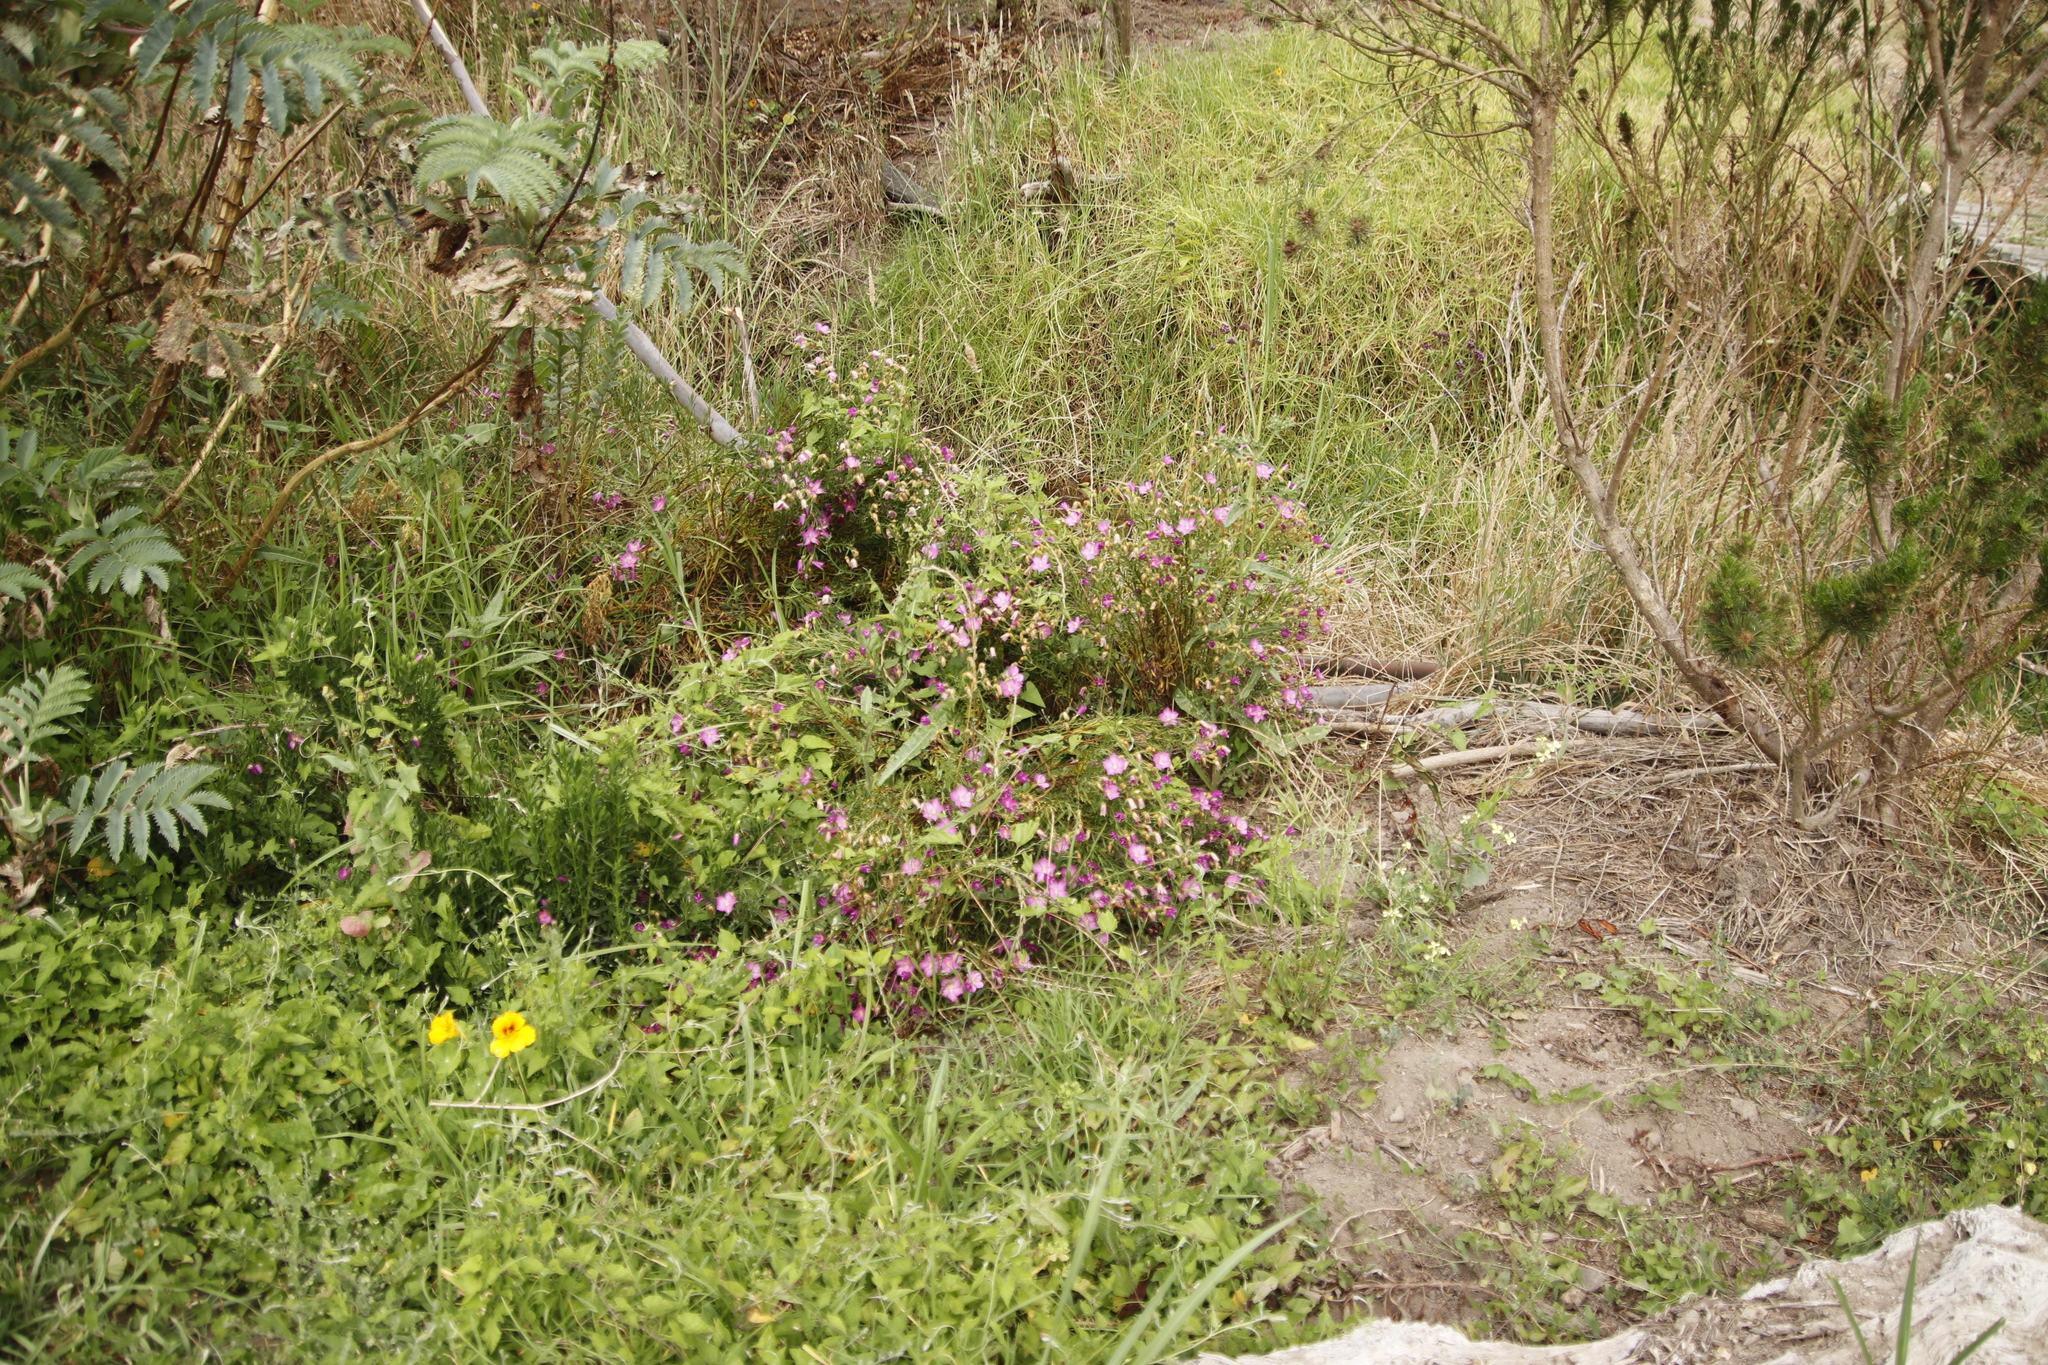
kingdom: Plantae
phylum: Tracheophyta
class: Magnoliopsida
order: Gentianales
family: Gentianaceae
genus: Chironia
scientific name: Chironia tetragona
